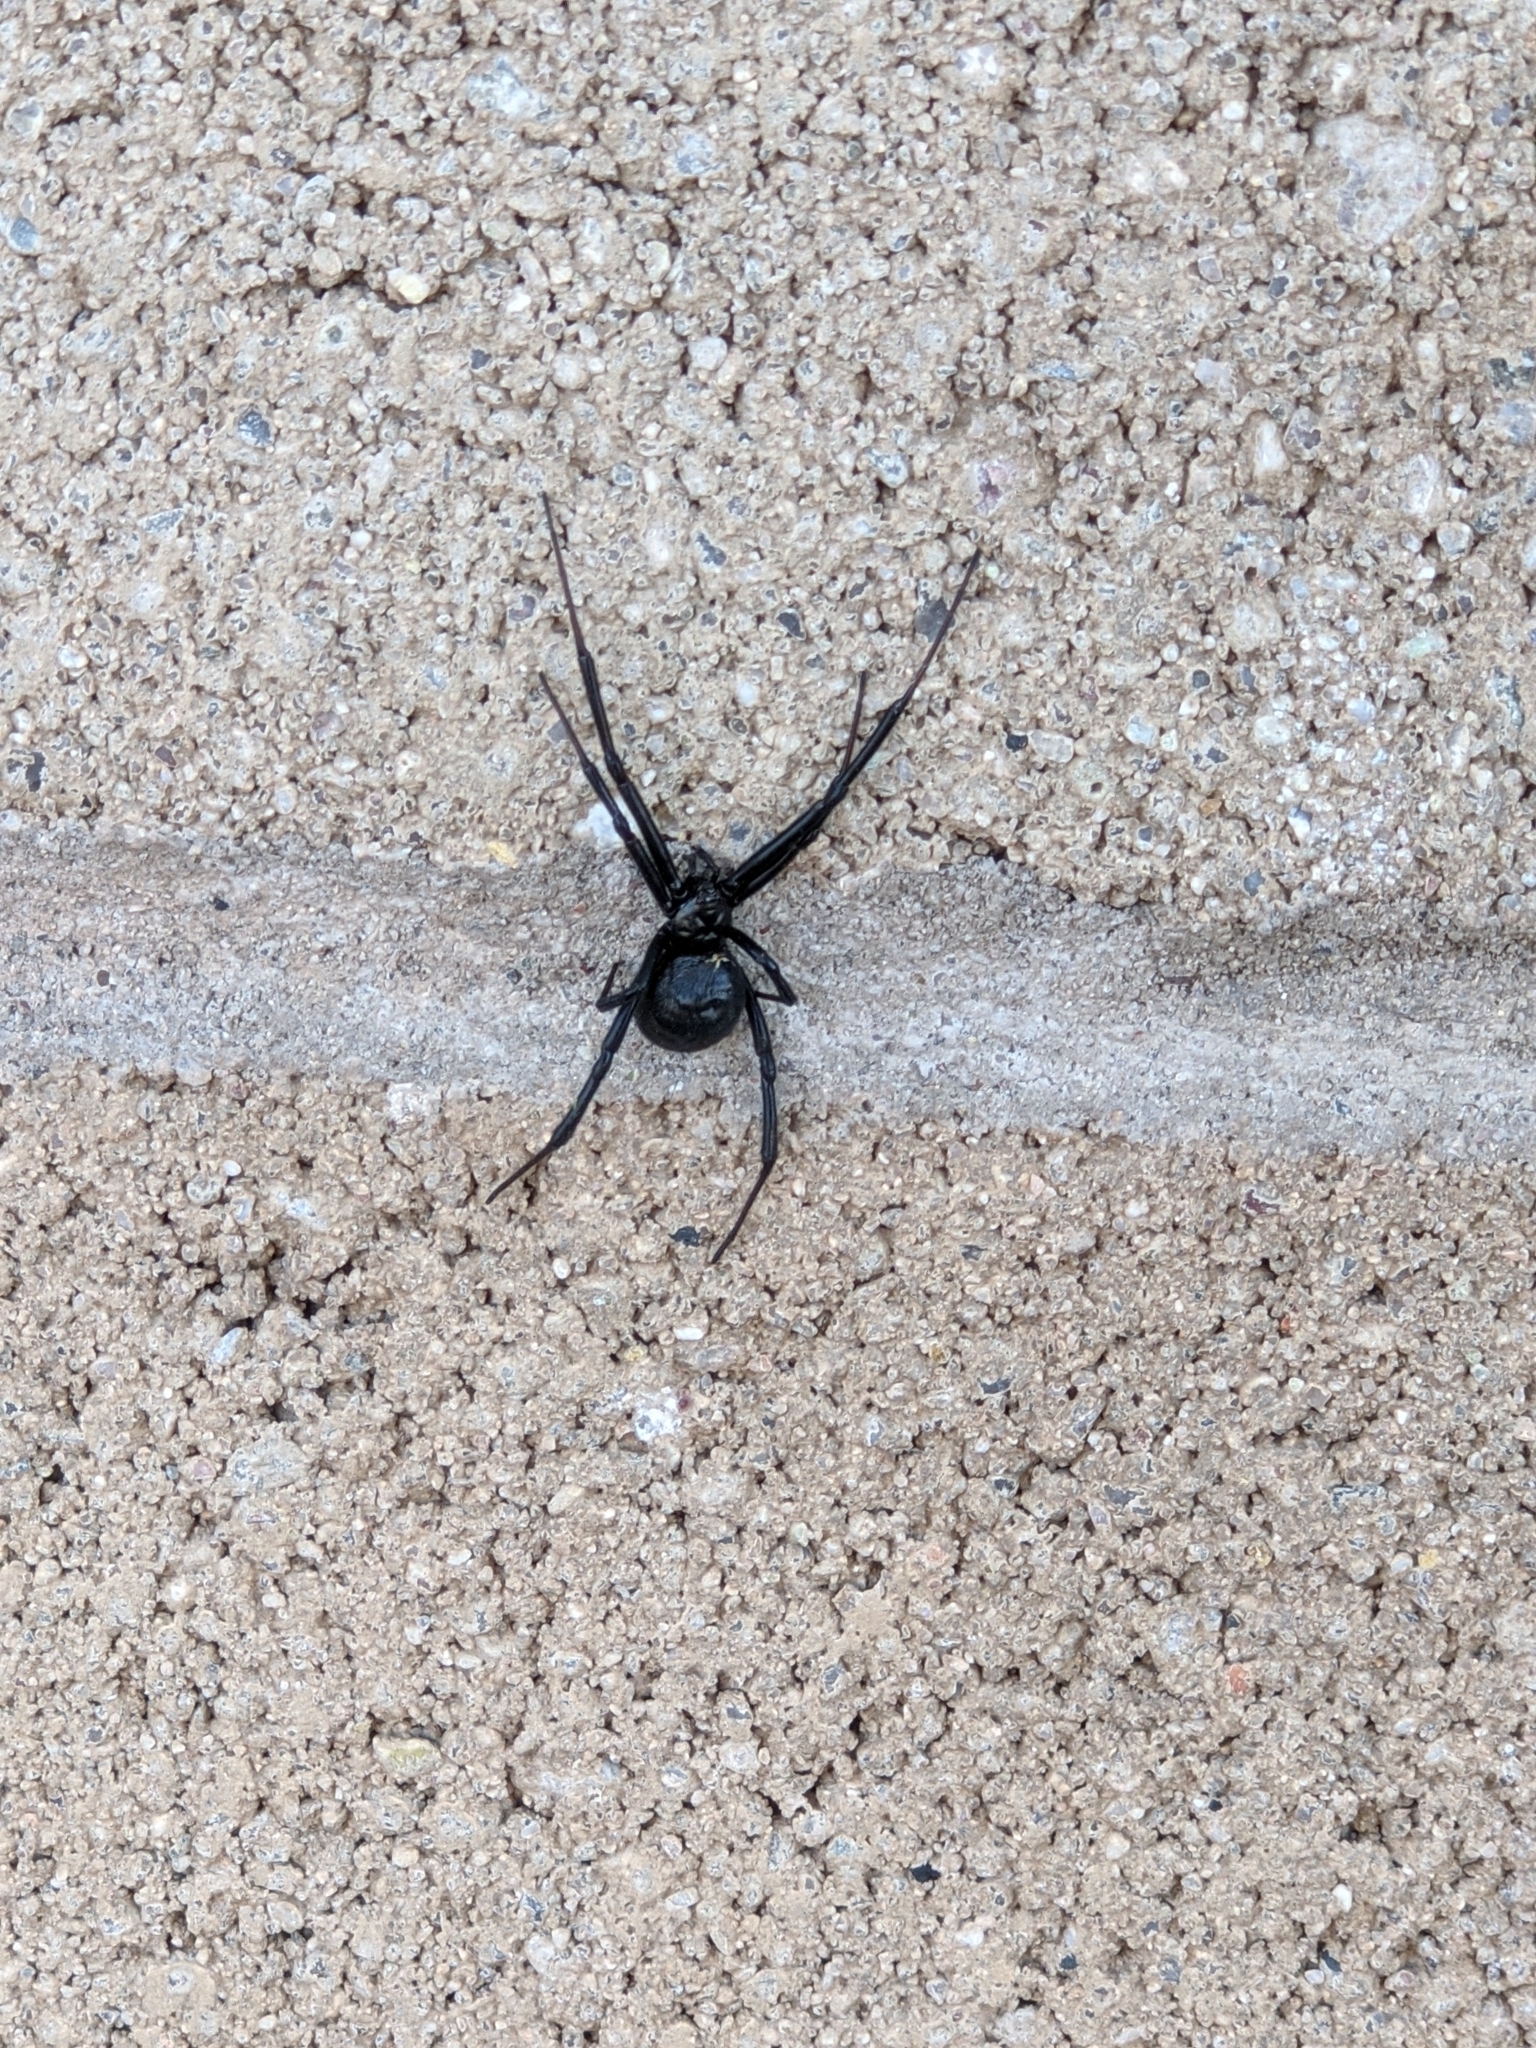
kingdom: Animalia
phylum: Arthropoda
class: Arachnida
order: Araneae
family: Theridiidae
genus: Latrodectus
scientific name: Latrodectus hesperus
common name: Western black widow
